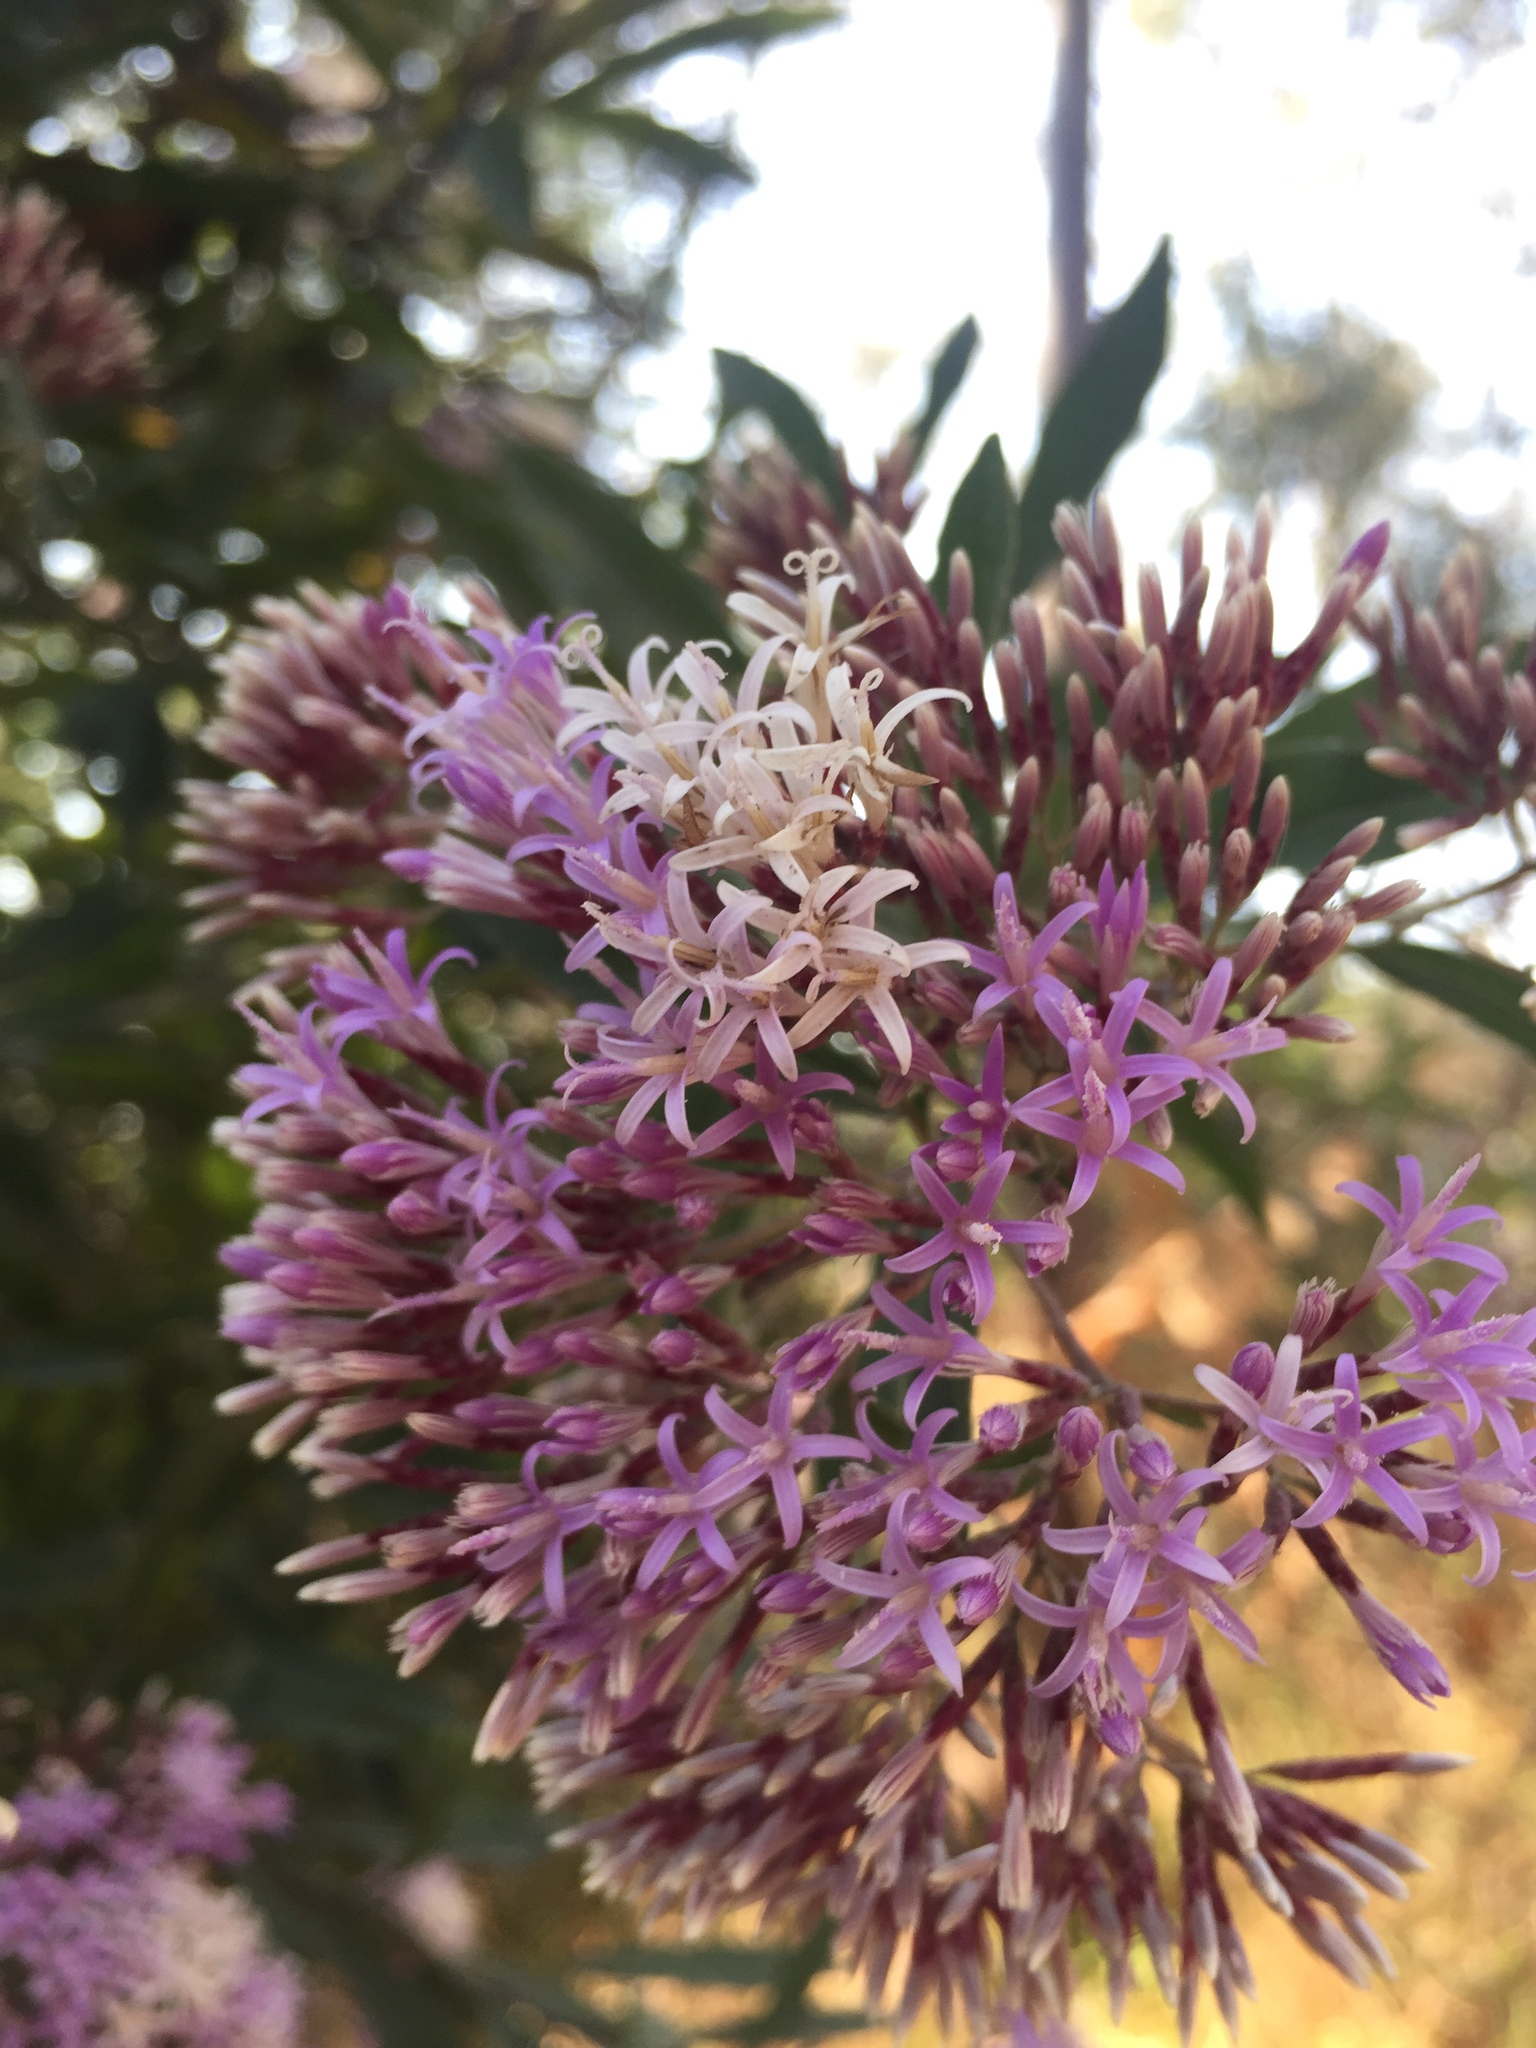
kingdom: Plantae
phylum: Tracheophyta
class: Magnoliopsida
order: Asterales
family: Asteraceae
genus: Eremosis
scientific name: Eremosis corymbosa
